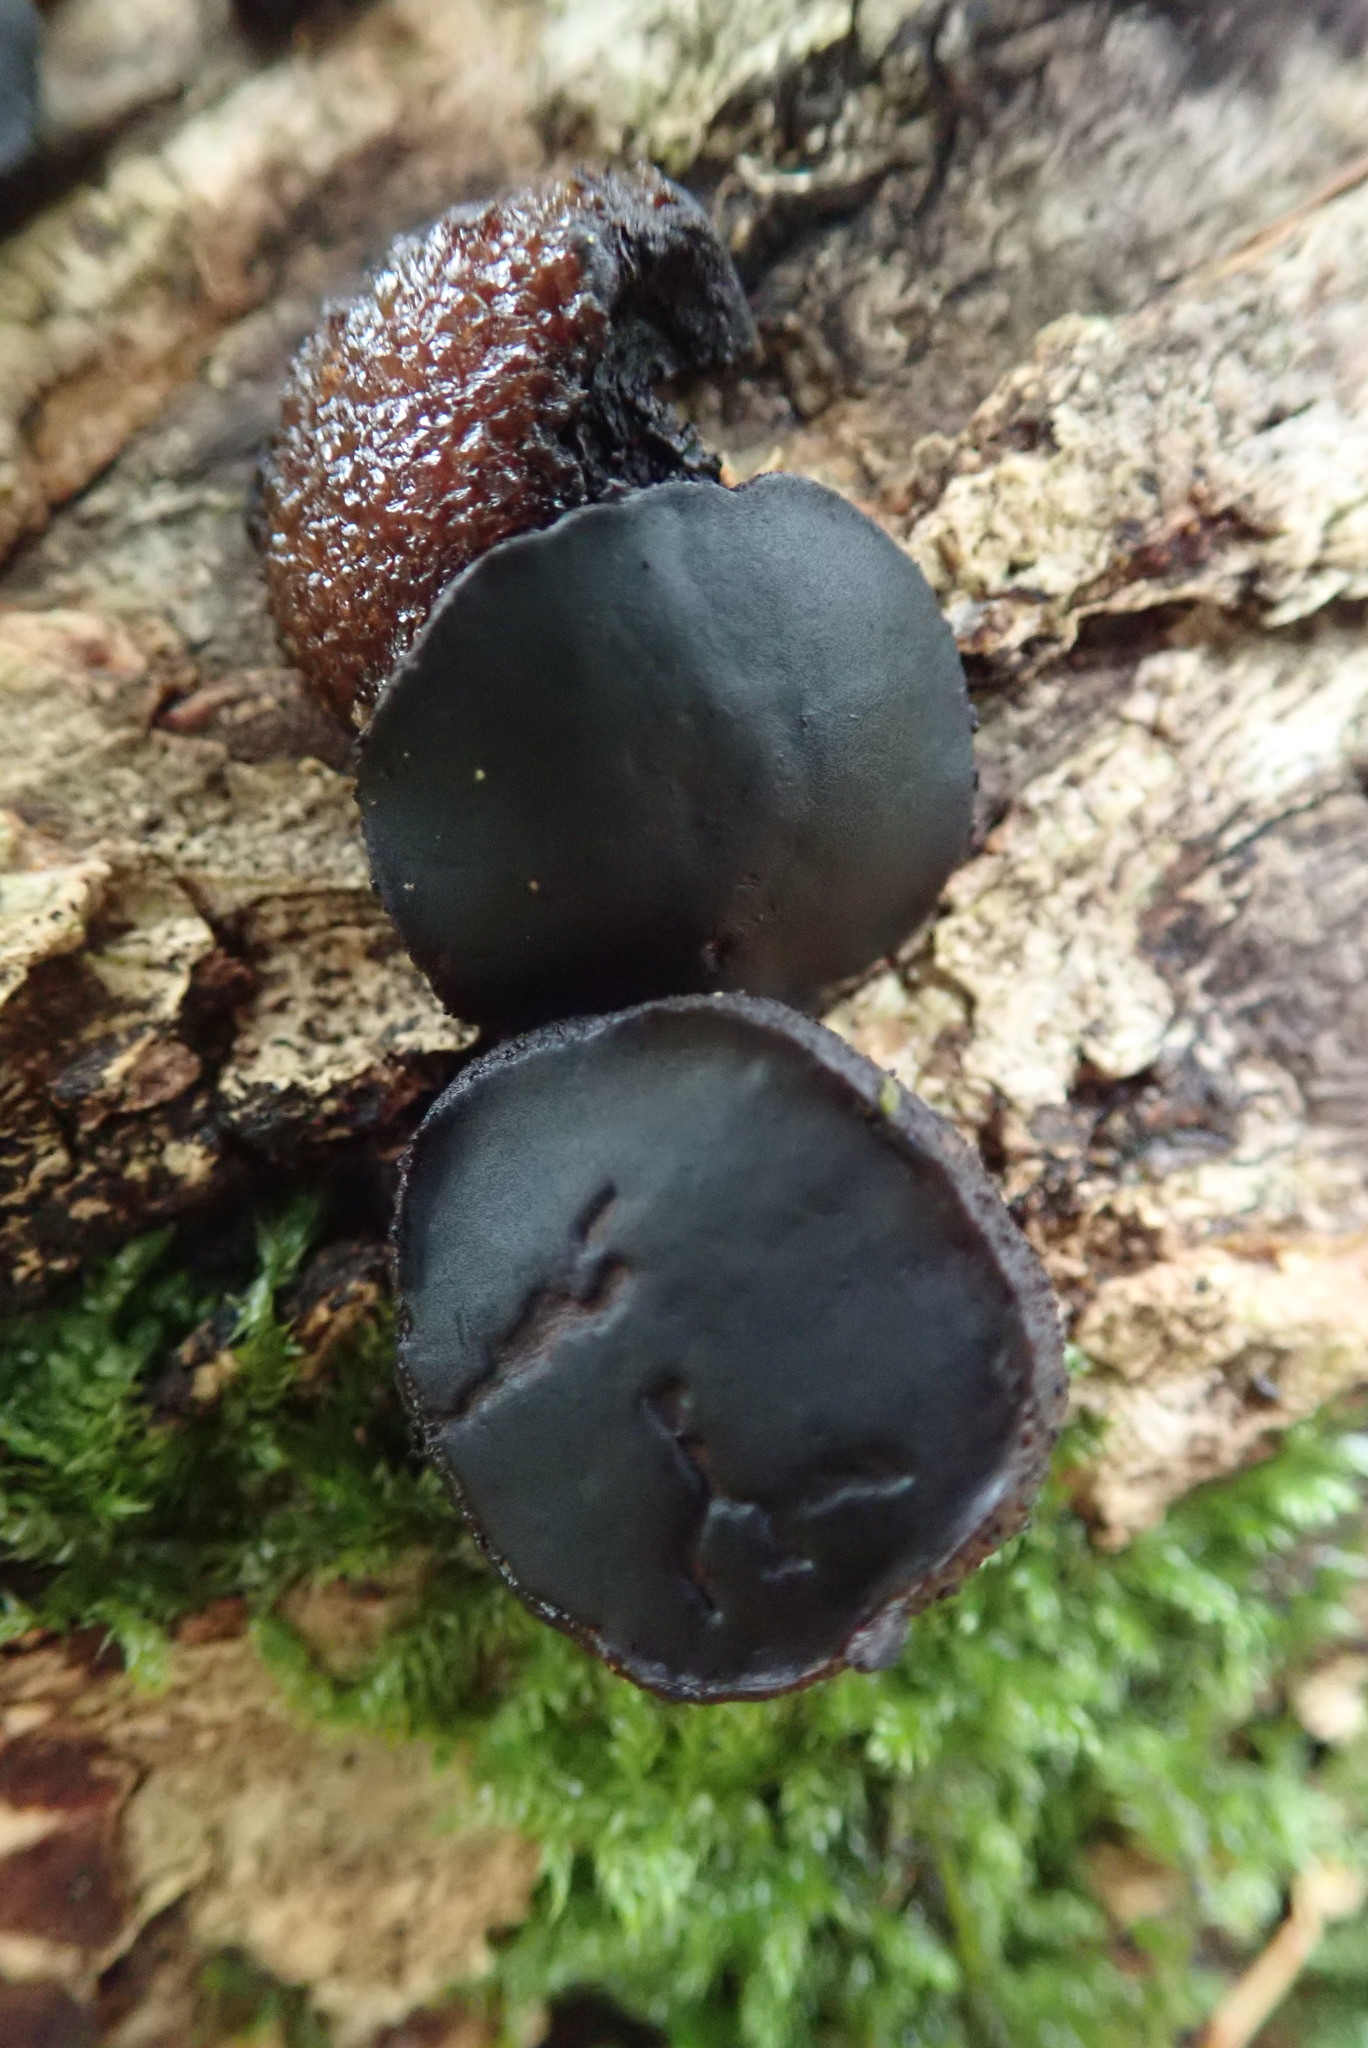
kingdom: Fungi
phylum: Ascomycota
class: Leotiomycetes
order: Phacidiales
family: Phacidiaceae
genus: Bulgaria
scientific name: Bulgaria inquinans
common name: Black bulgar
